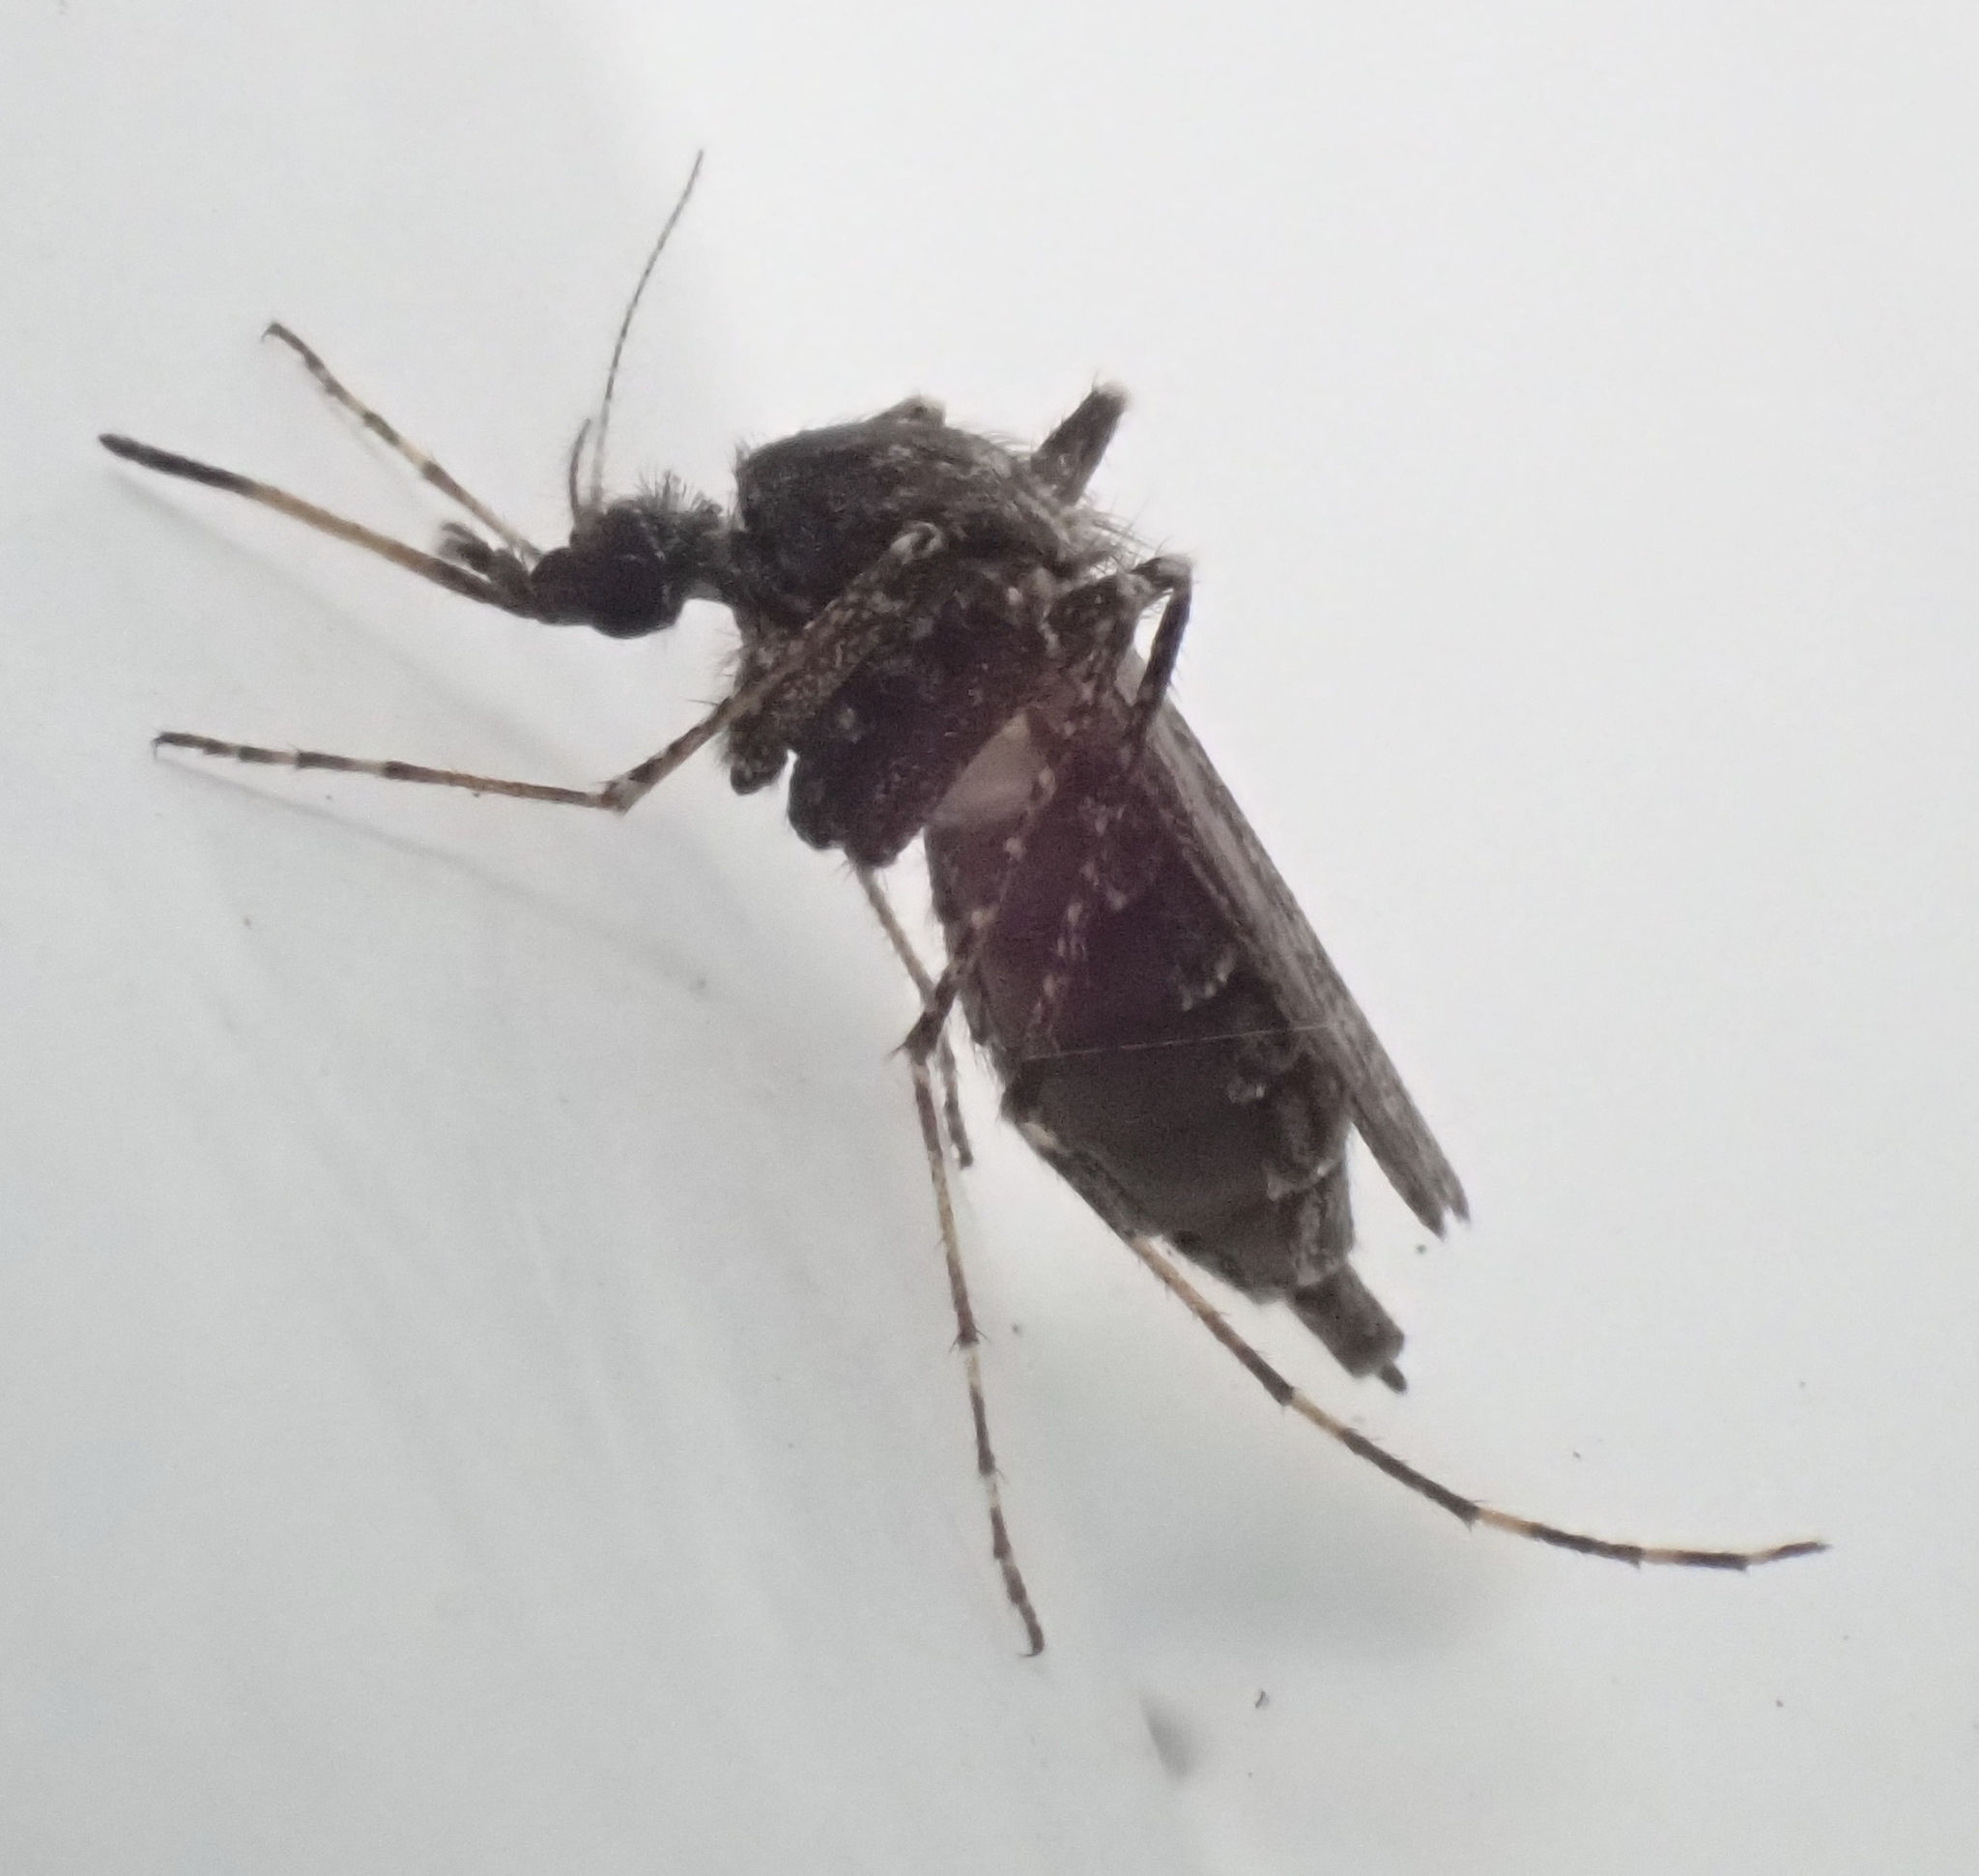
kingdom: Animalia
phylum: Arthropoda
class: Insecta
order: Diptera
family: Culicidae
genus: Psorophora
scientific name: Psorophora columbiae
